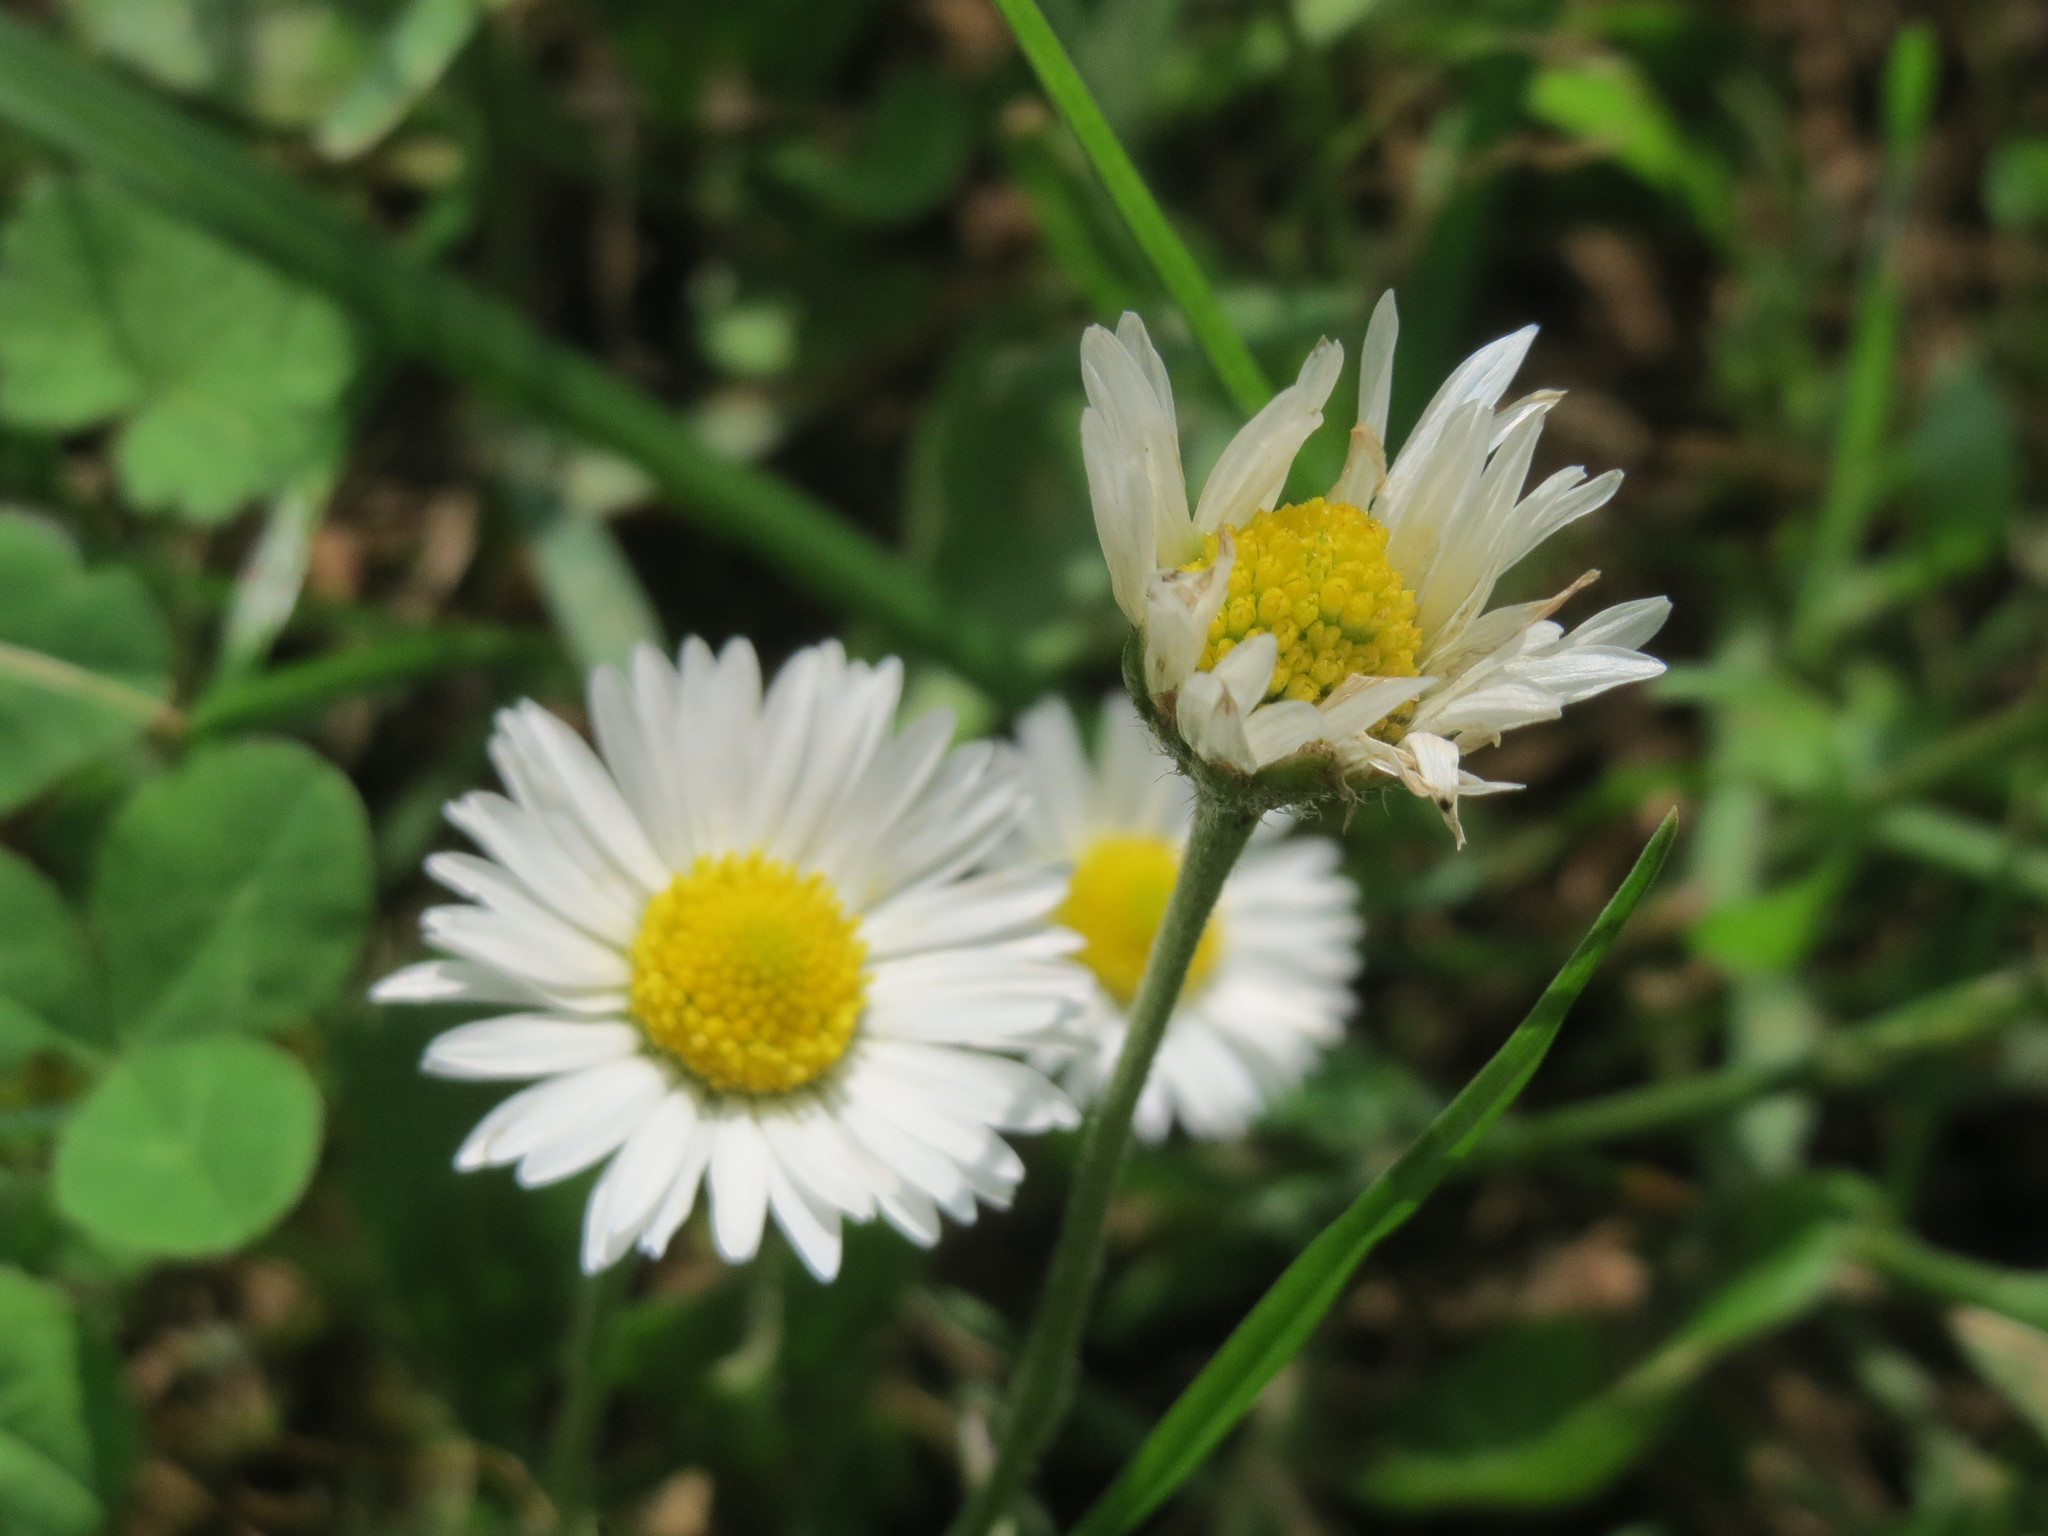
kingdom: Plantae
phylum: Tracheophyta
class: Magnoliopsida
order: Asterales
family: Asteraceae
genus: Bellis
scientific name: Bellis perennis
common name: Lawndaisy
